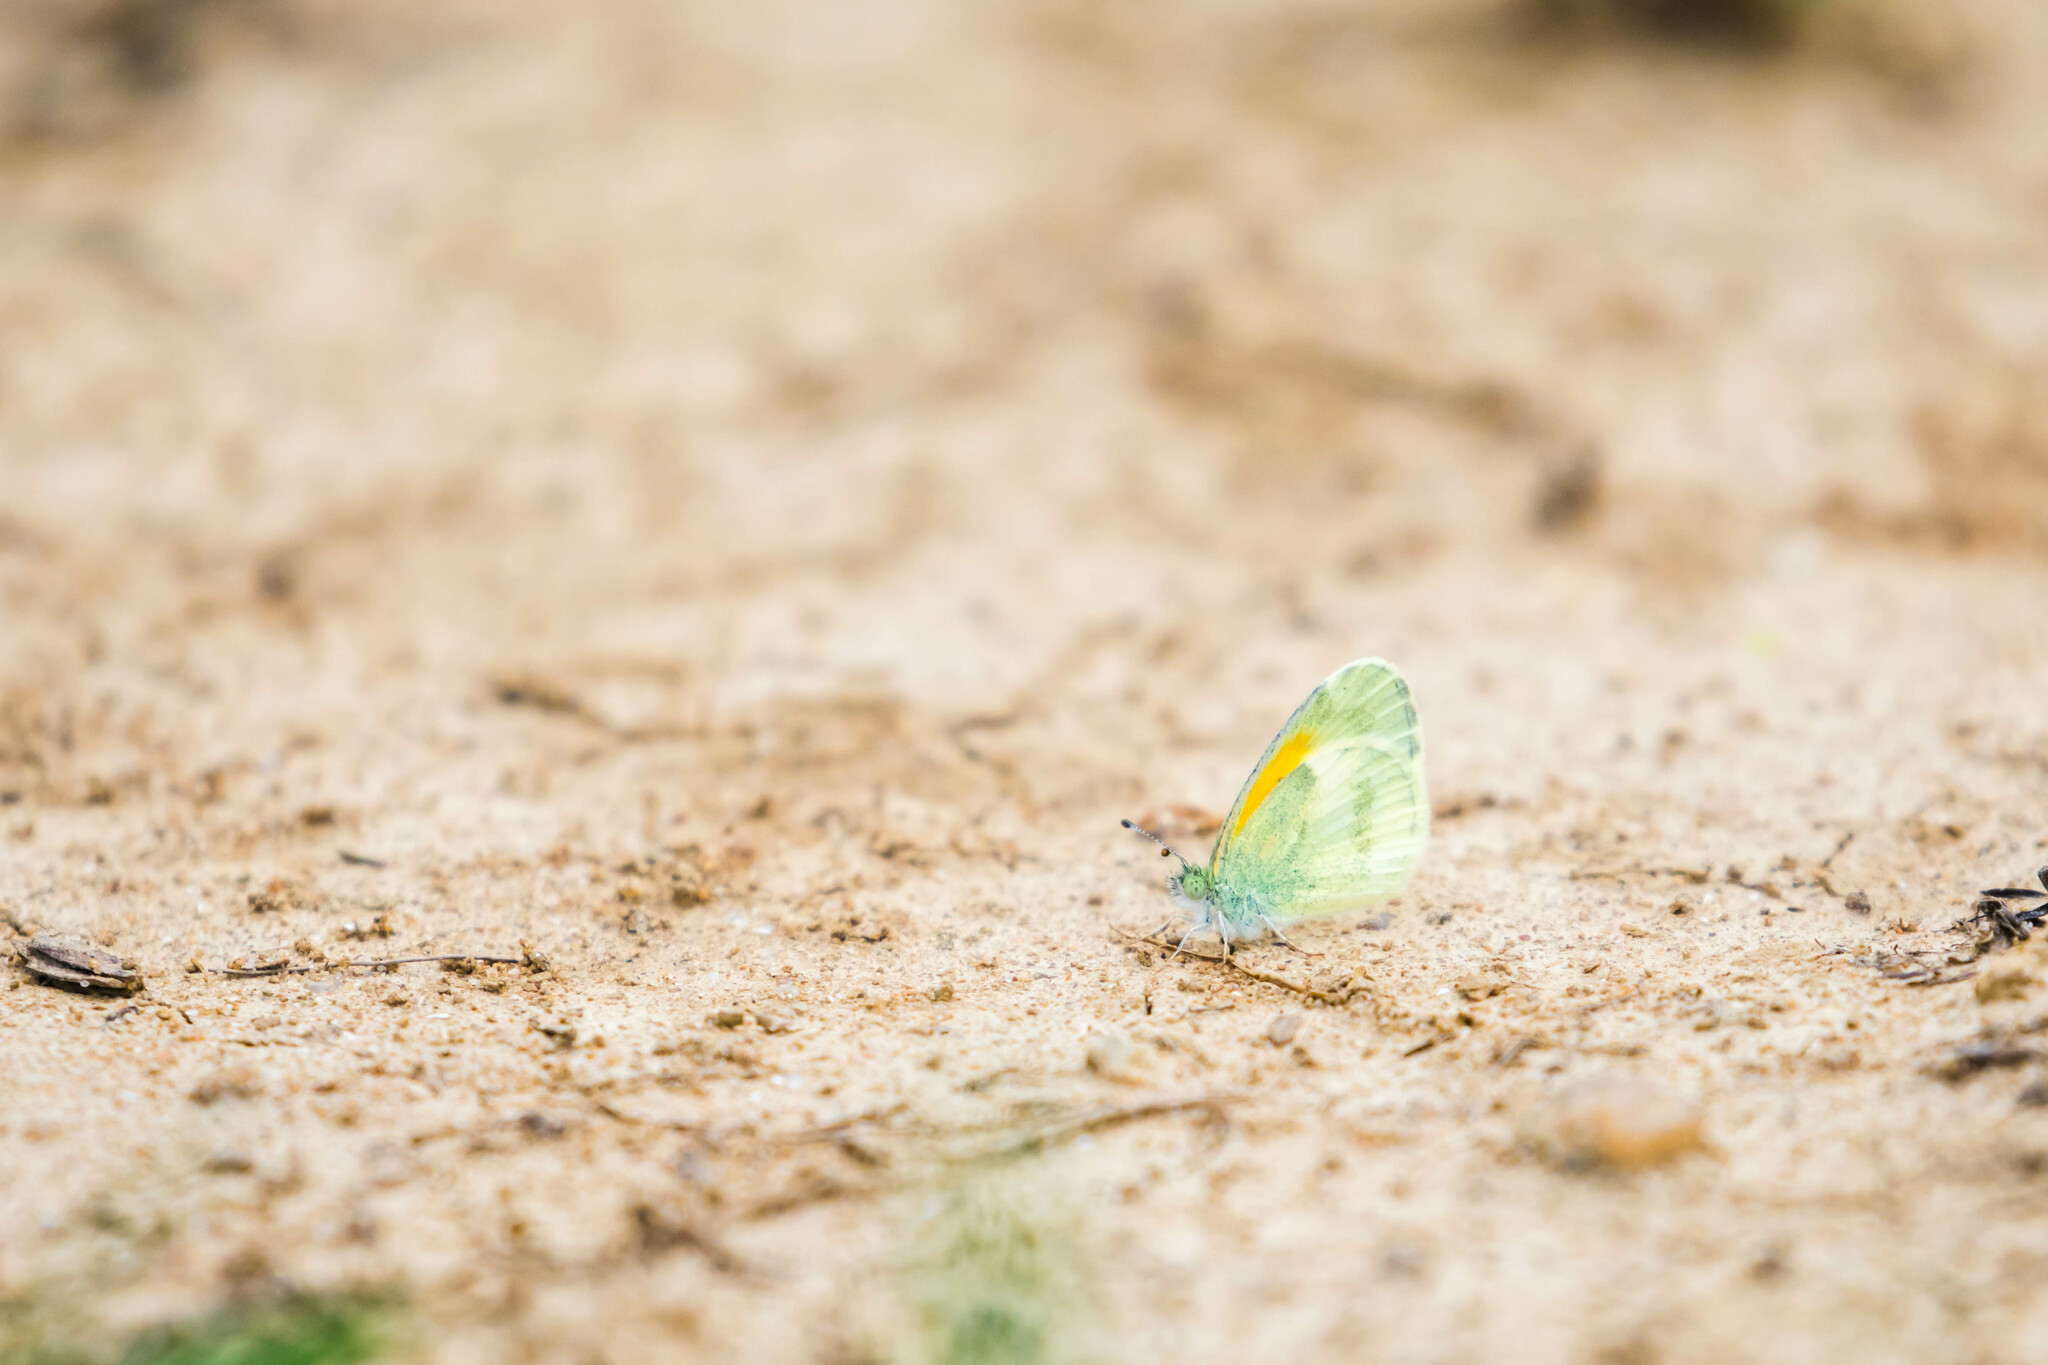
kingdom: Animalia
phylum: Arthropoda
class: Insecta
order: Lepidoptera
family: Pieridae
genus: Nathalis
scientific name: Nathalis iole
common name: Dainty sulphur
